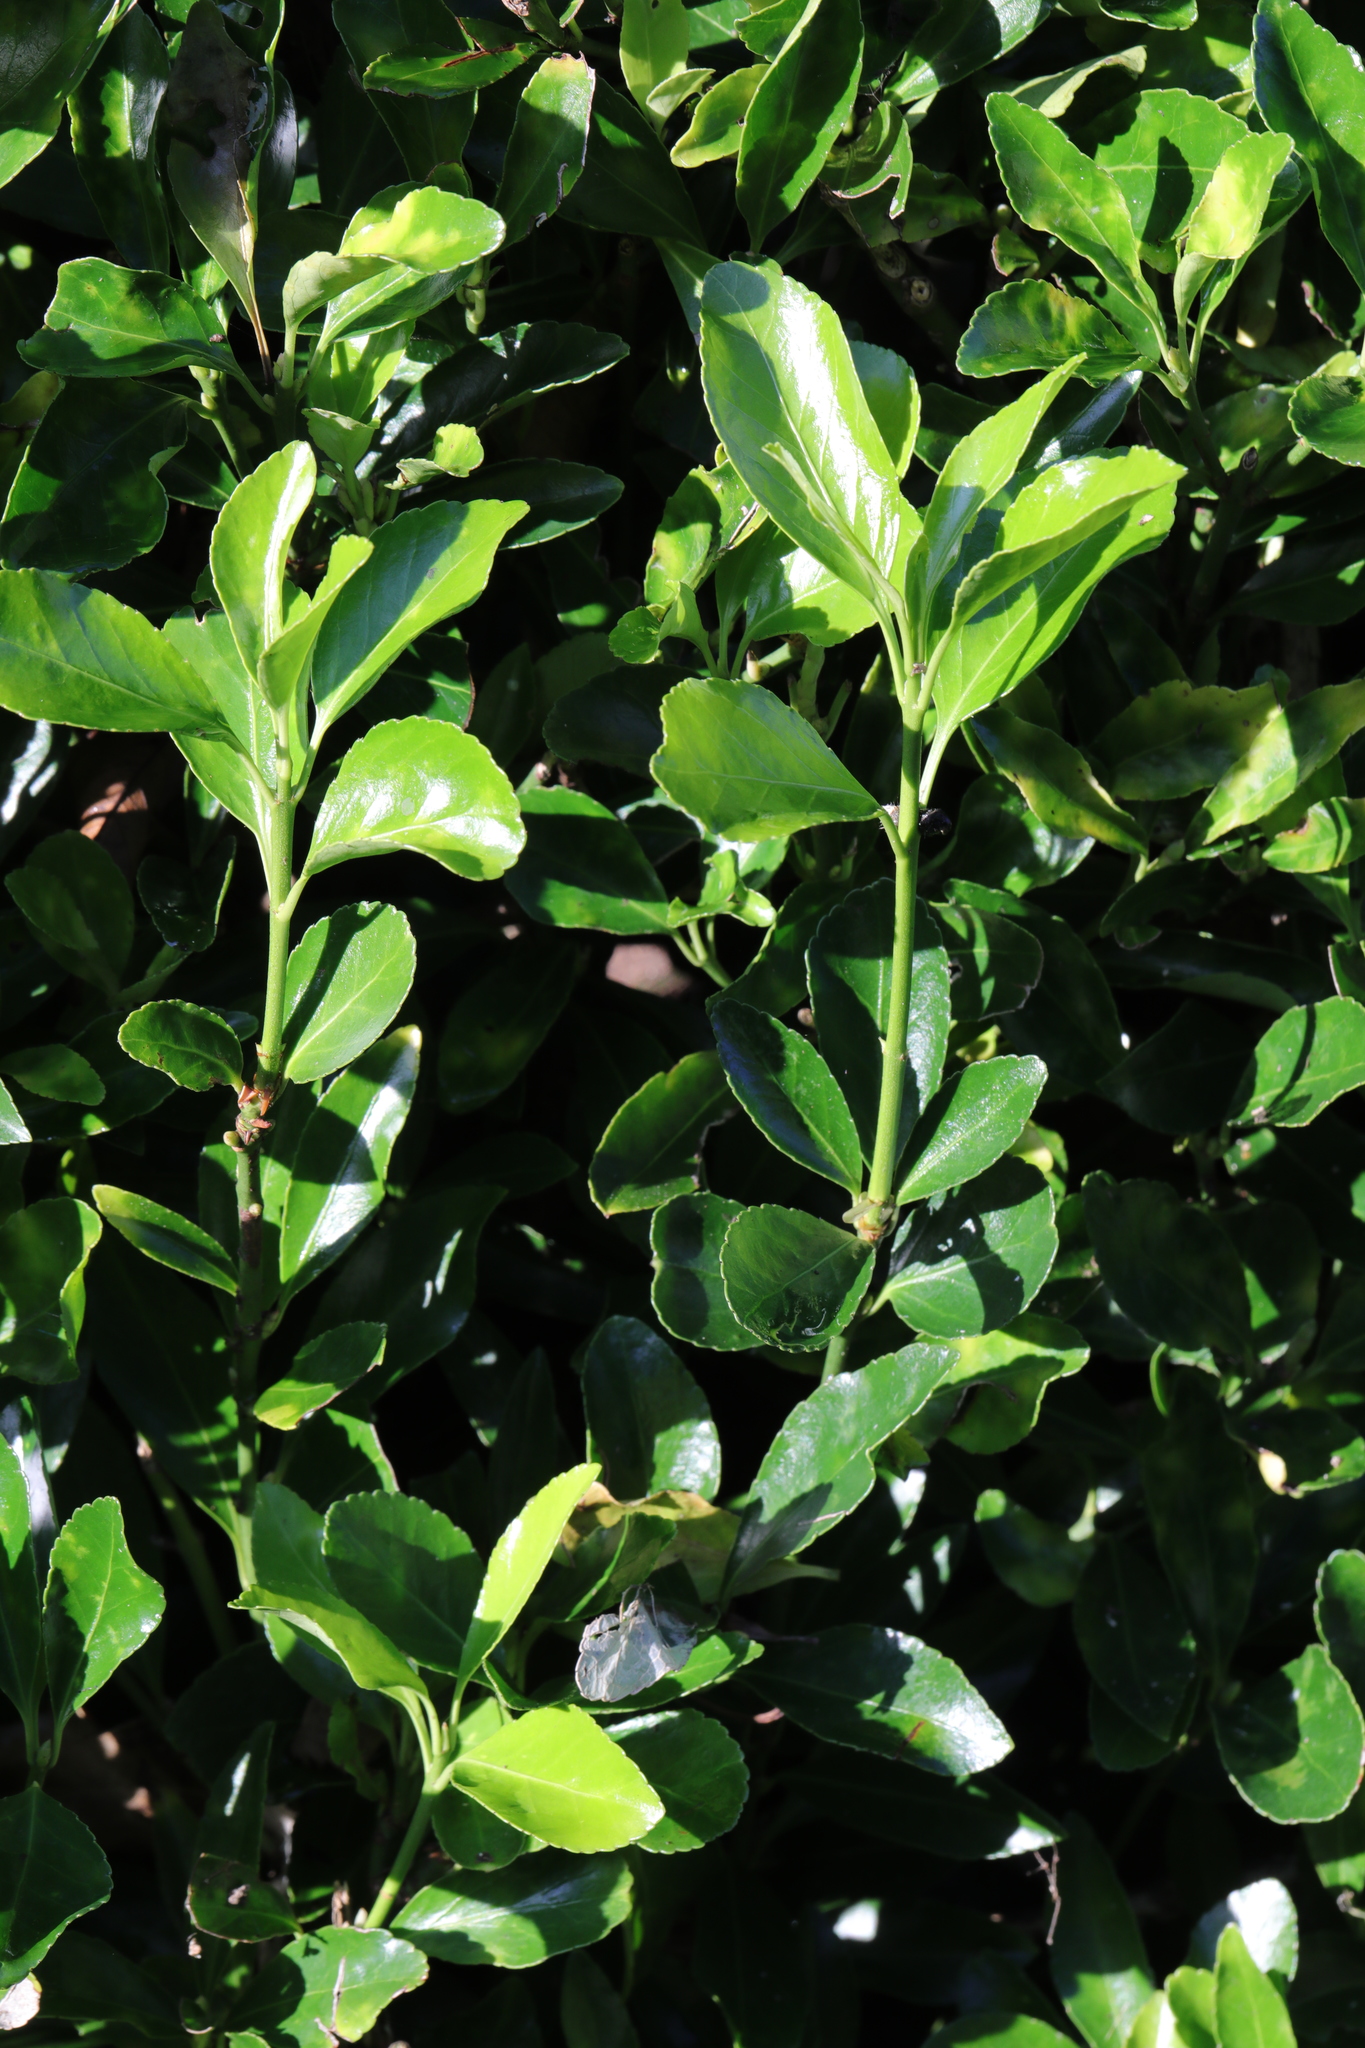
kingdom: Plantae
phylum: Tracheophyta
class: Magnoliopsida
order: Celastrales
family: Celastraceae
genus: Euonymus
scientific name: Euonymus japonicus
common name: Japanese spindletree
